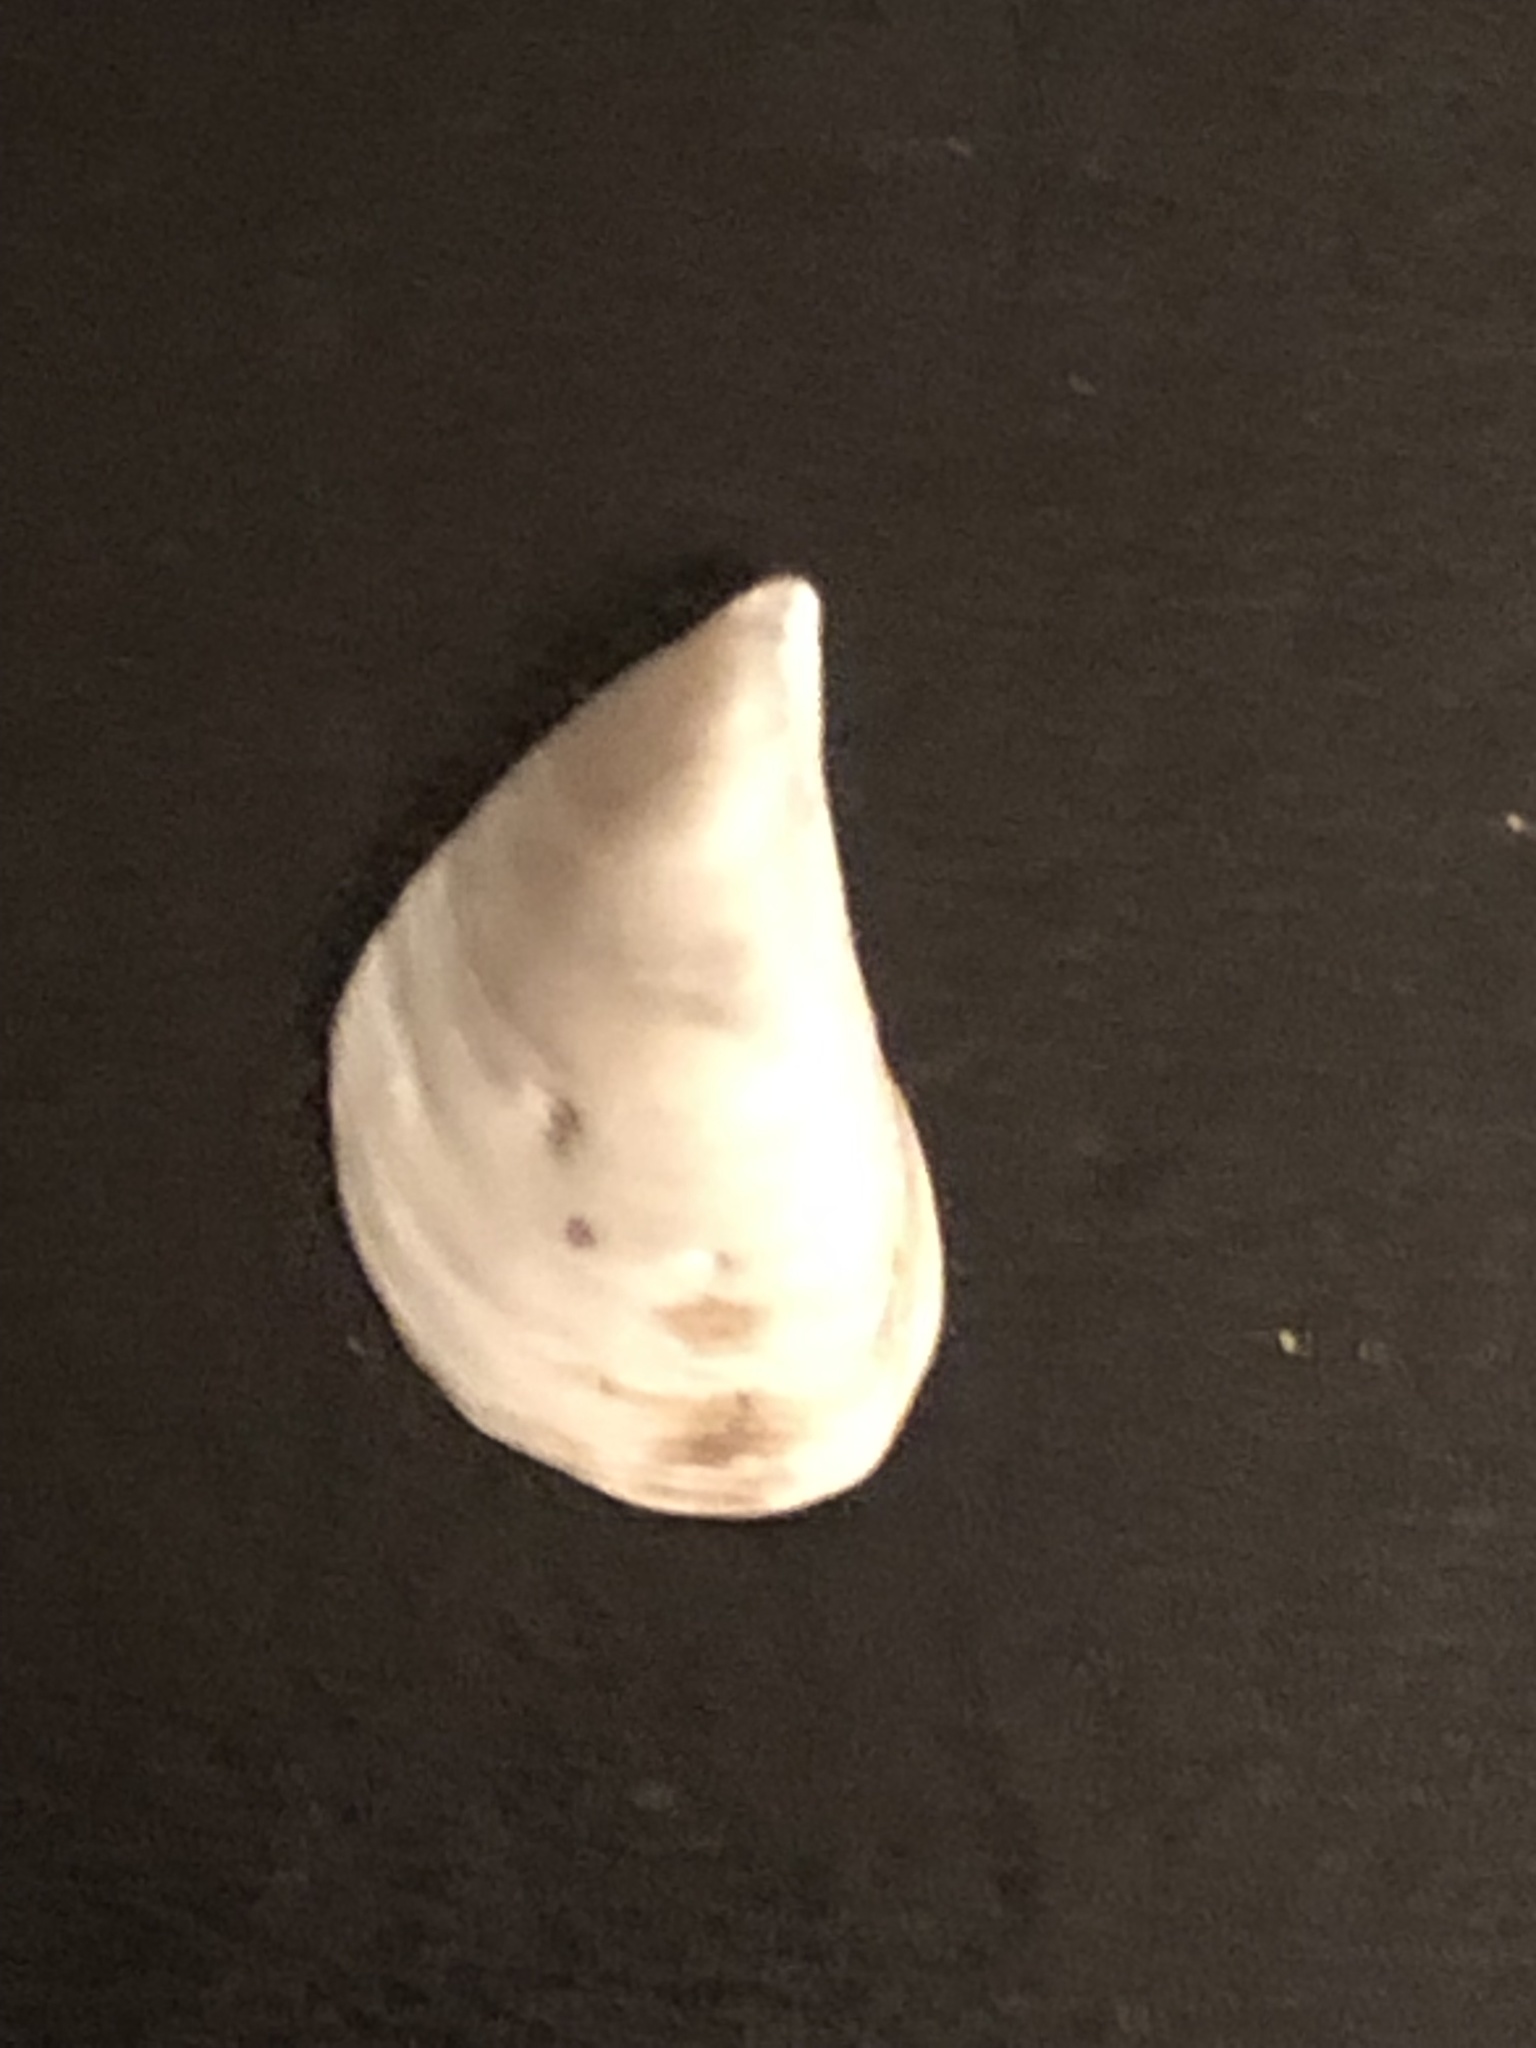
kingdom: Animalia
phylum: Mollusca
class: Bivalvia
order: Myida
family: Dreissenidae
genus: Dreissena
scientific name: Dreissena bugensis
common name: Quagga mussel
